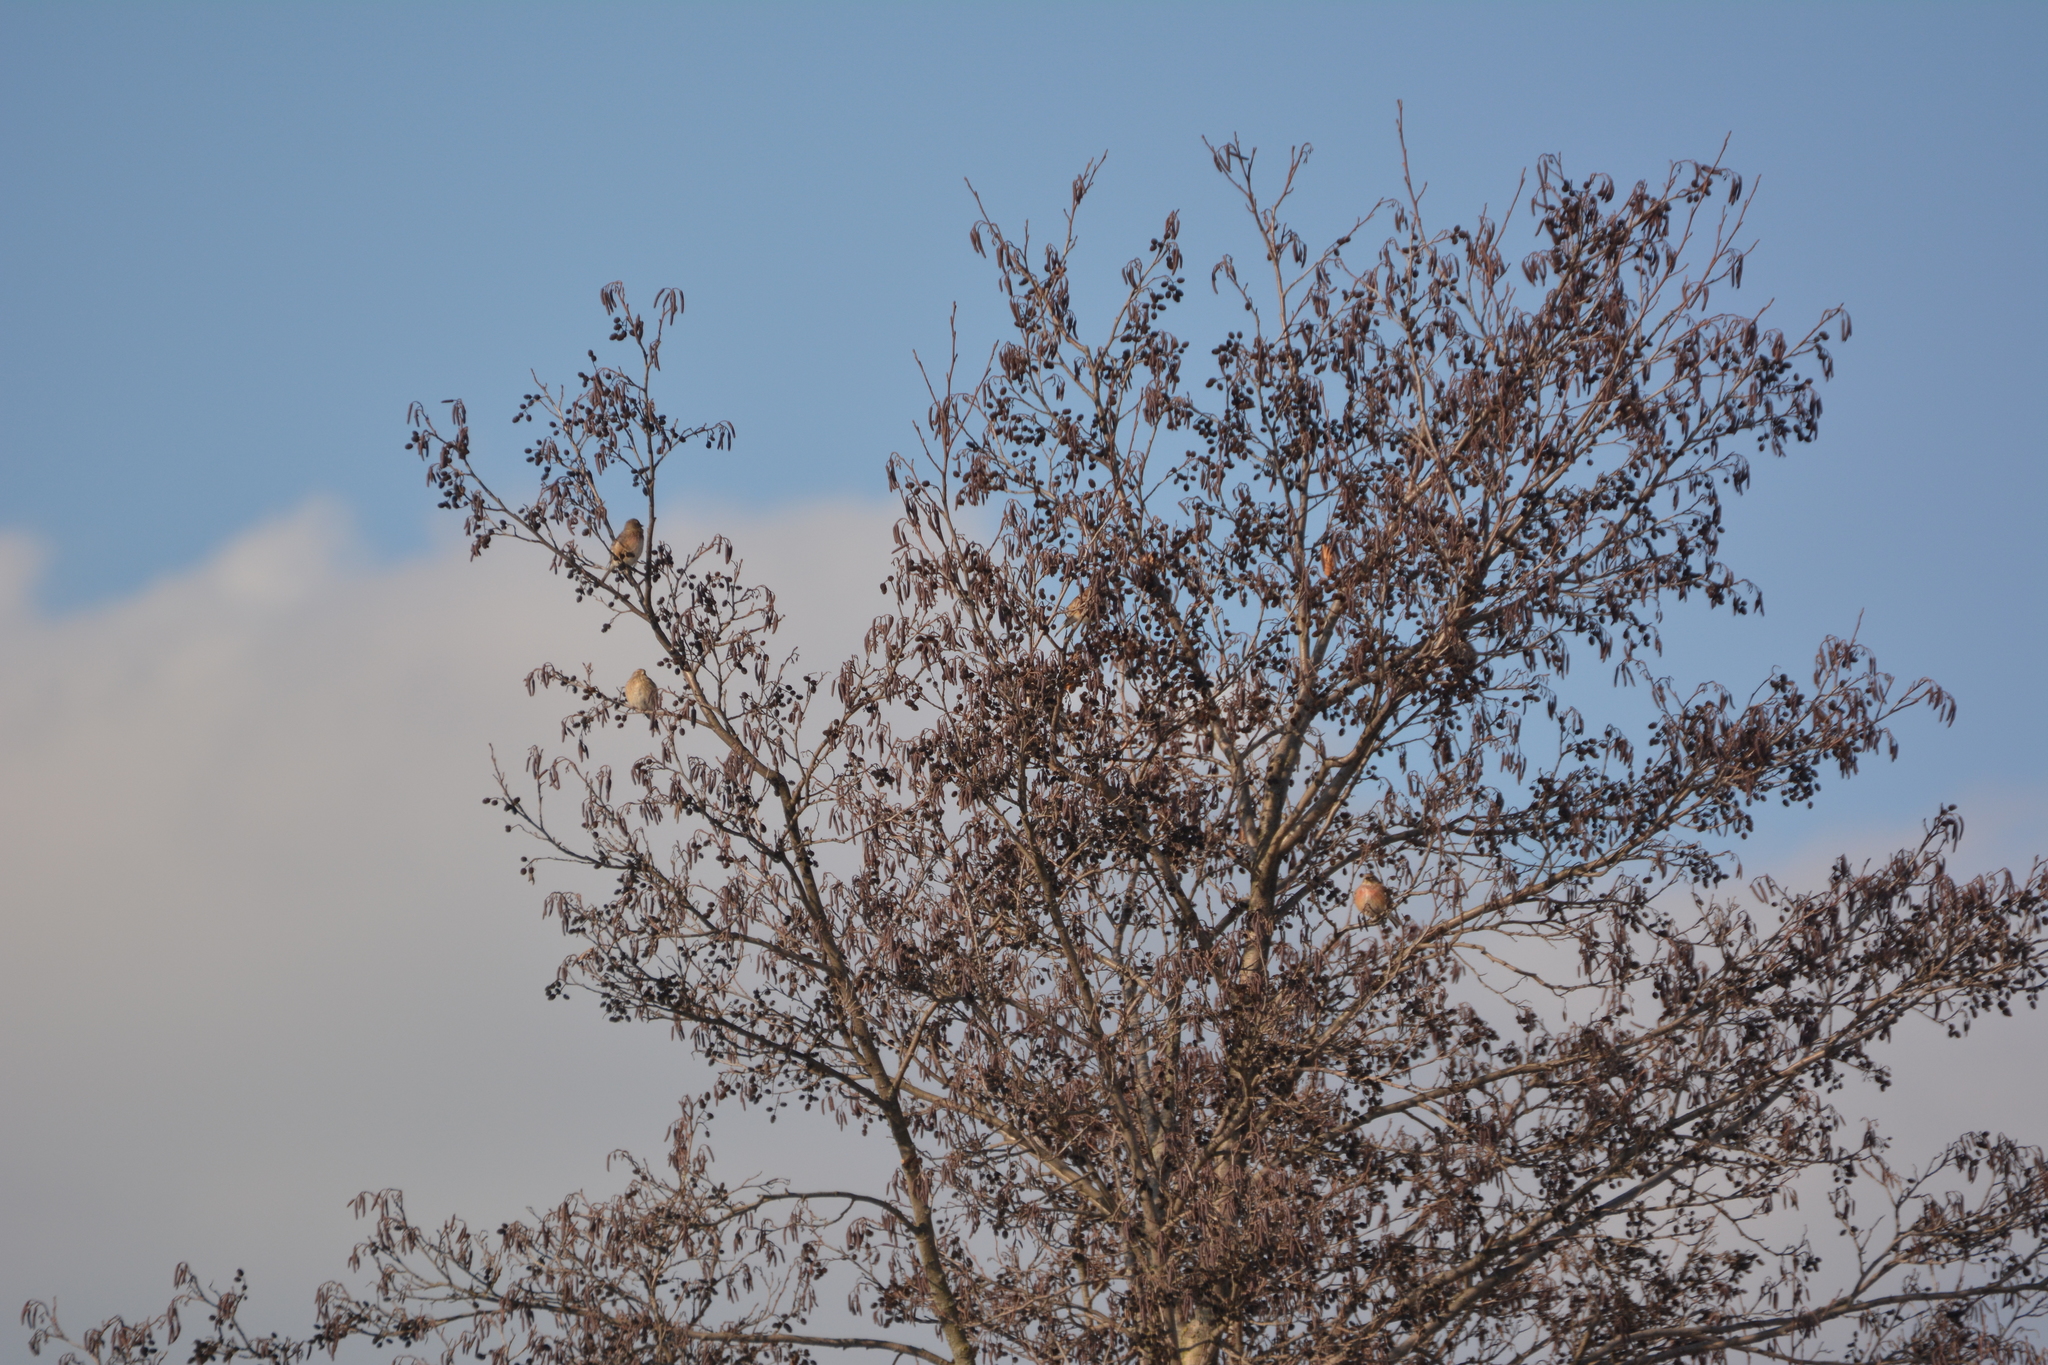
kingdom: Animalia
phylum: Chordata
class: Aves
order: Passeriformes
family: Fringillidae
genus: Linaria
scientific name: Linaria cannabina
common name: Common linnet
